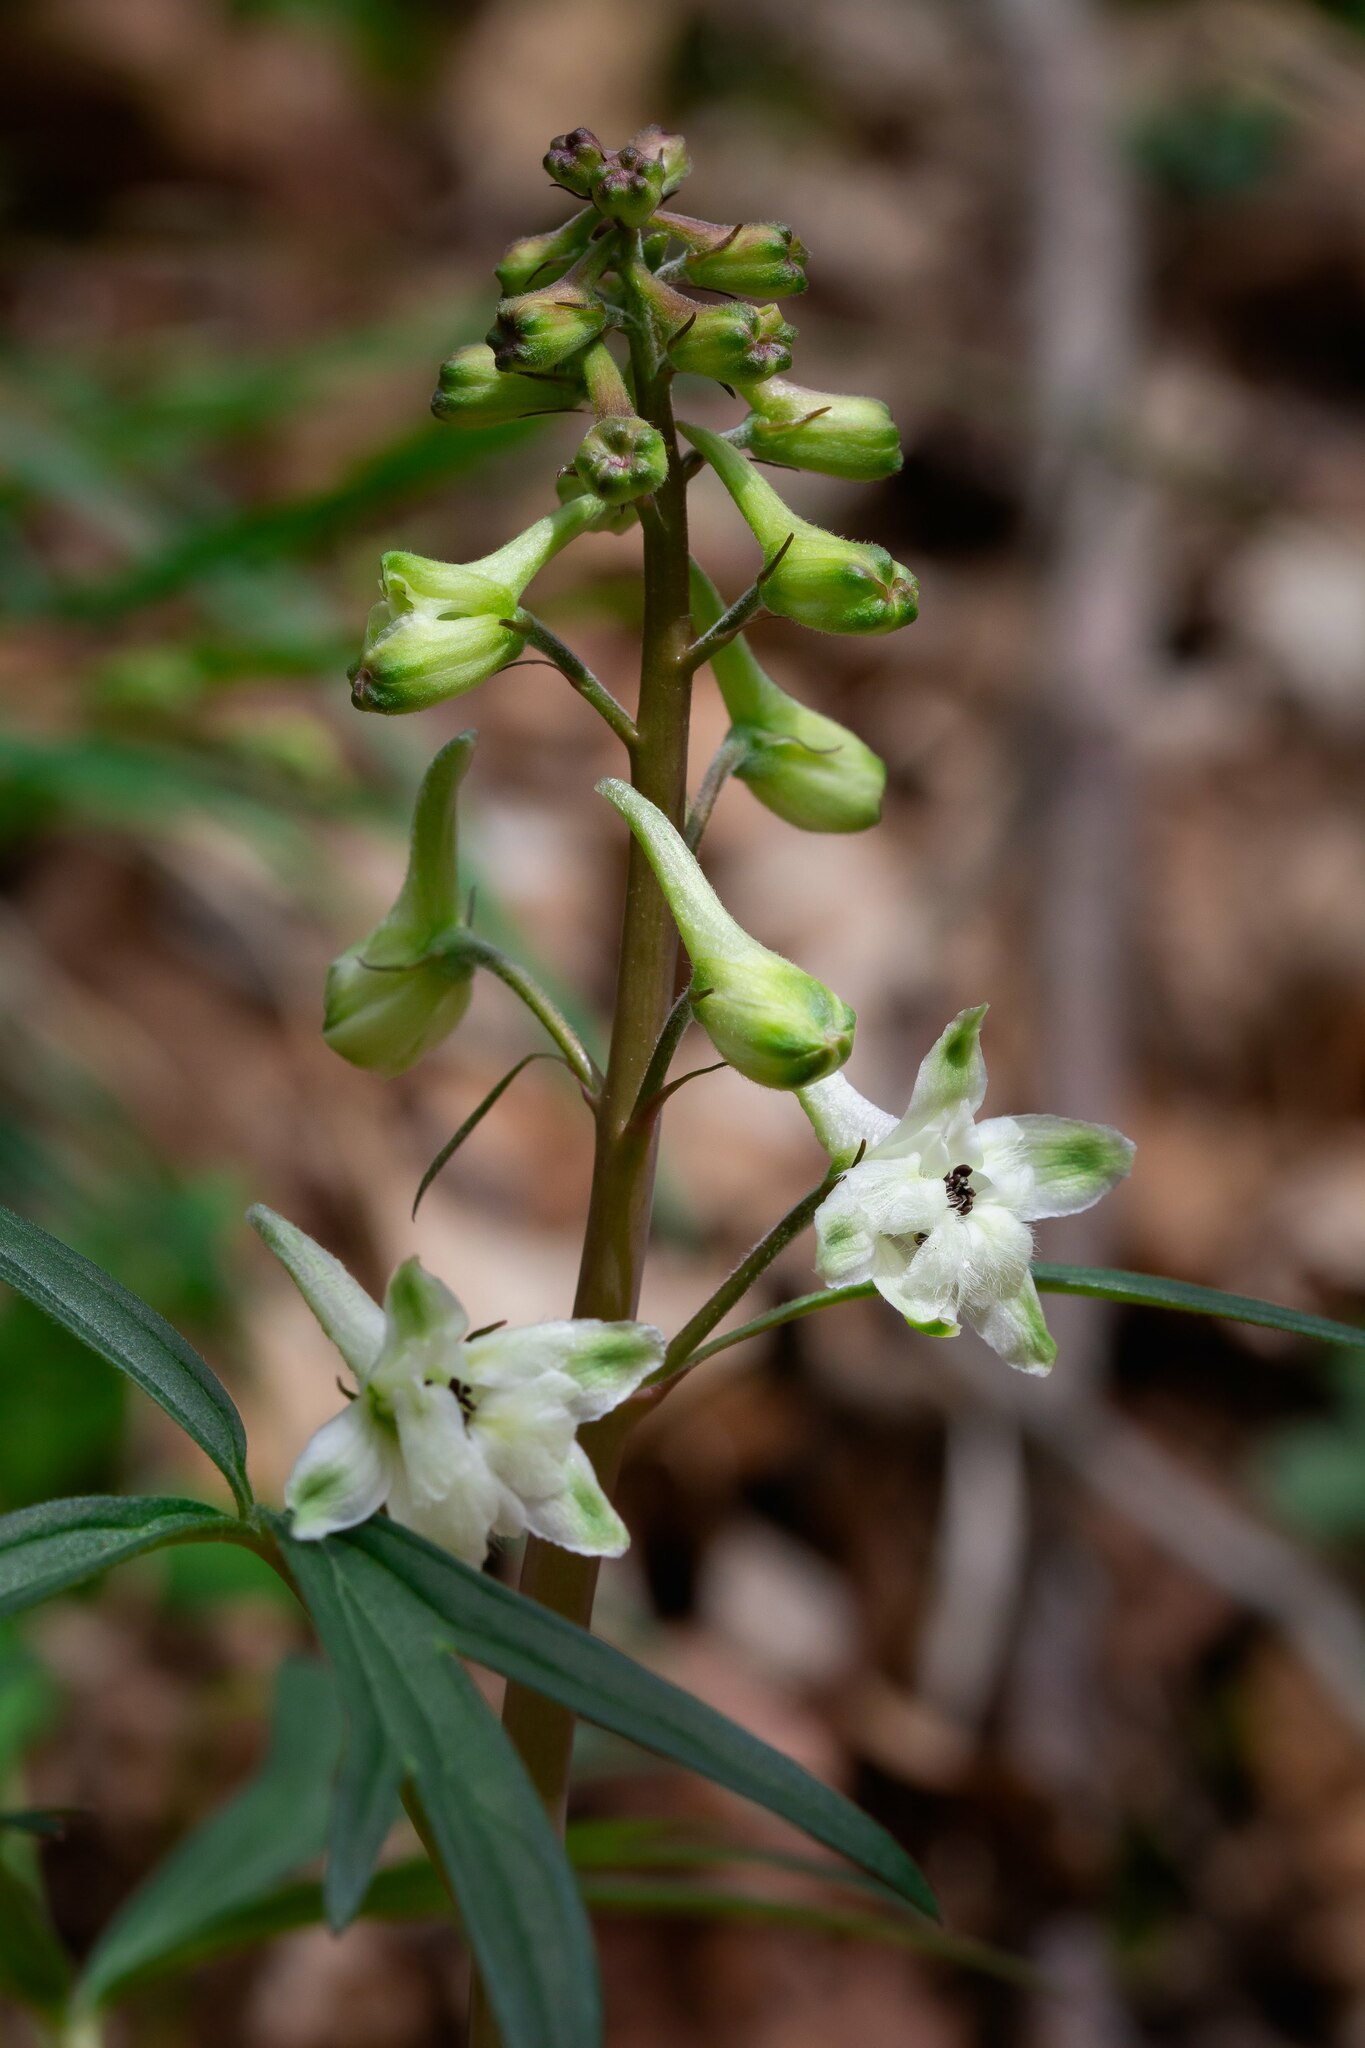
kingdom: Plantae
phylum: Tracheophyta
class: Magnoliopsida
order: Ranunculales
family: Ranunculaceae
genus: Delphinium
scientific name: Delphinium tricorne
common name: Dwarf larkspur
